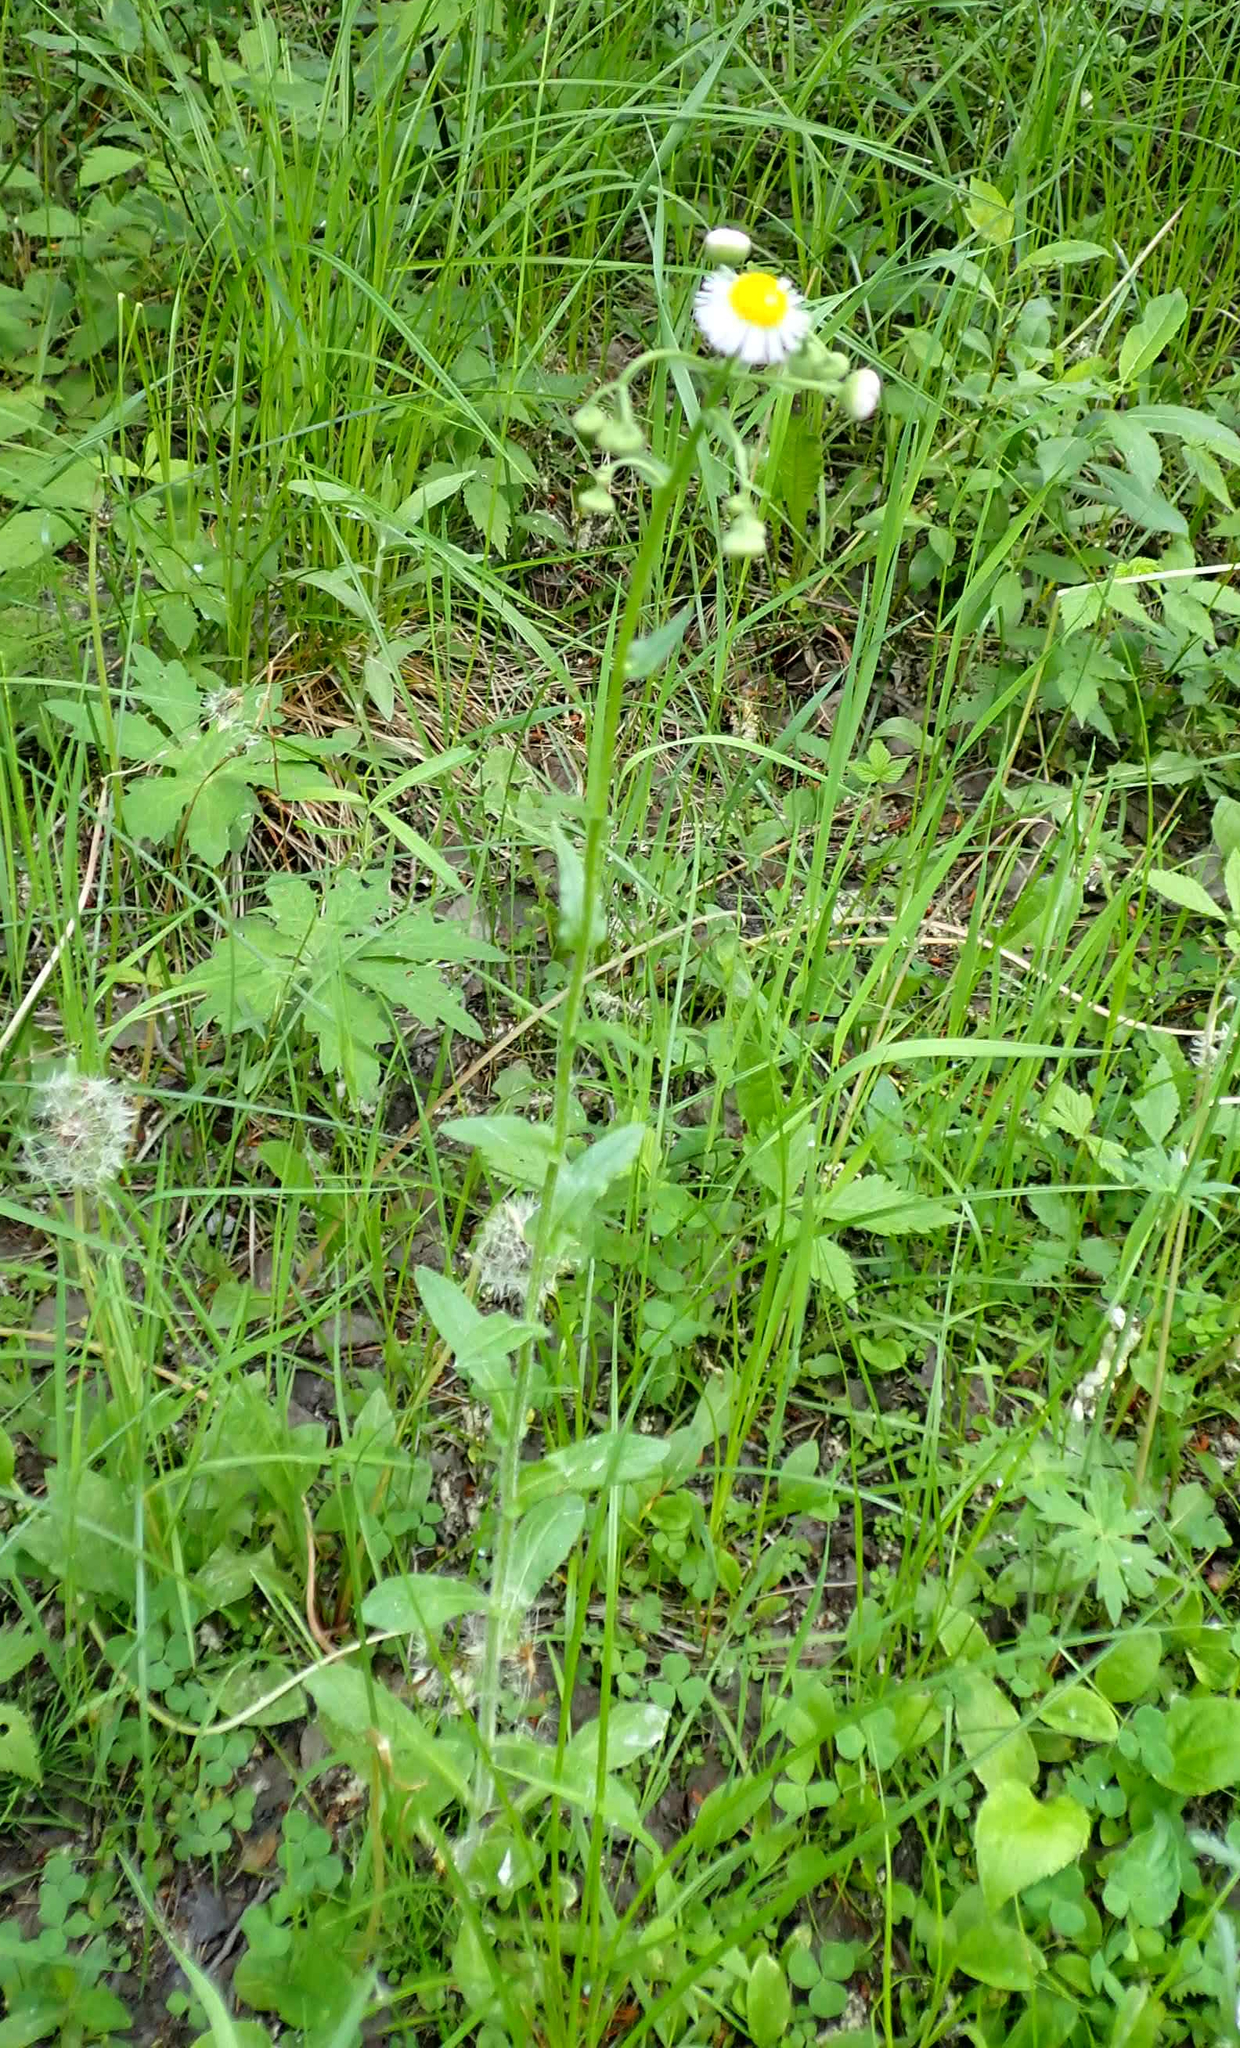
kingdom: Plantae
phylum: Tracheophyta
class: Magnoliopsida
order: Asterales
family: Asteraceae
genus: Erigeron
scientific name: Erigeron philadelphicus
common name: Robin's-plantain
